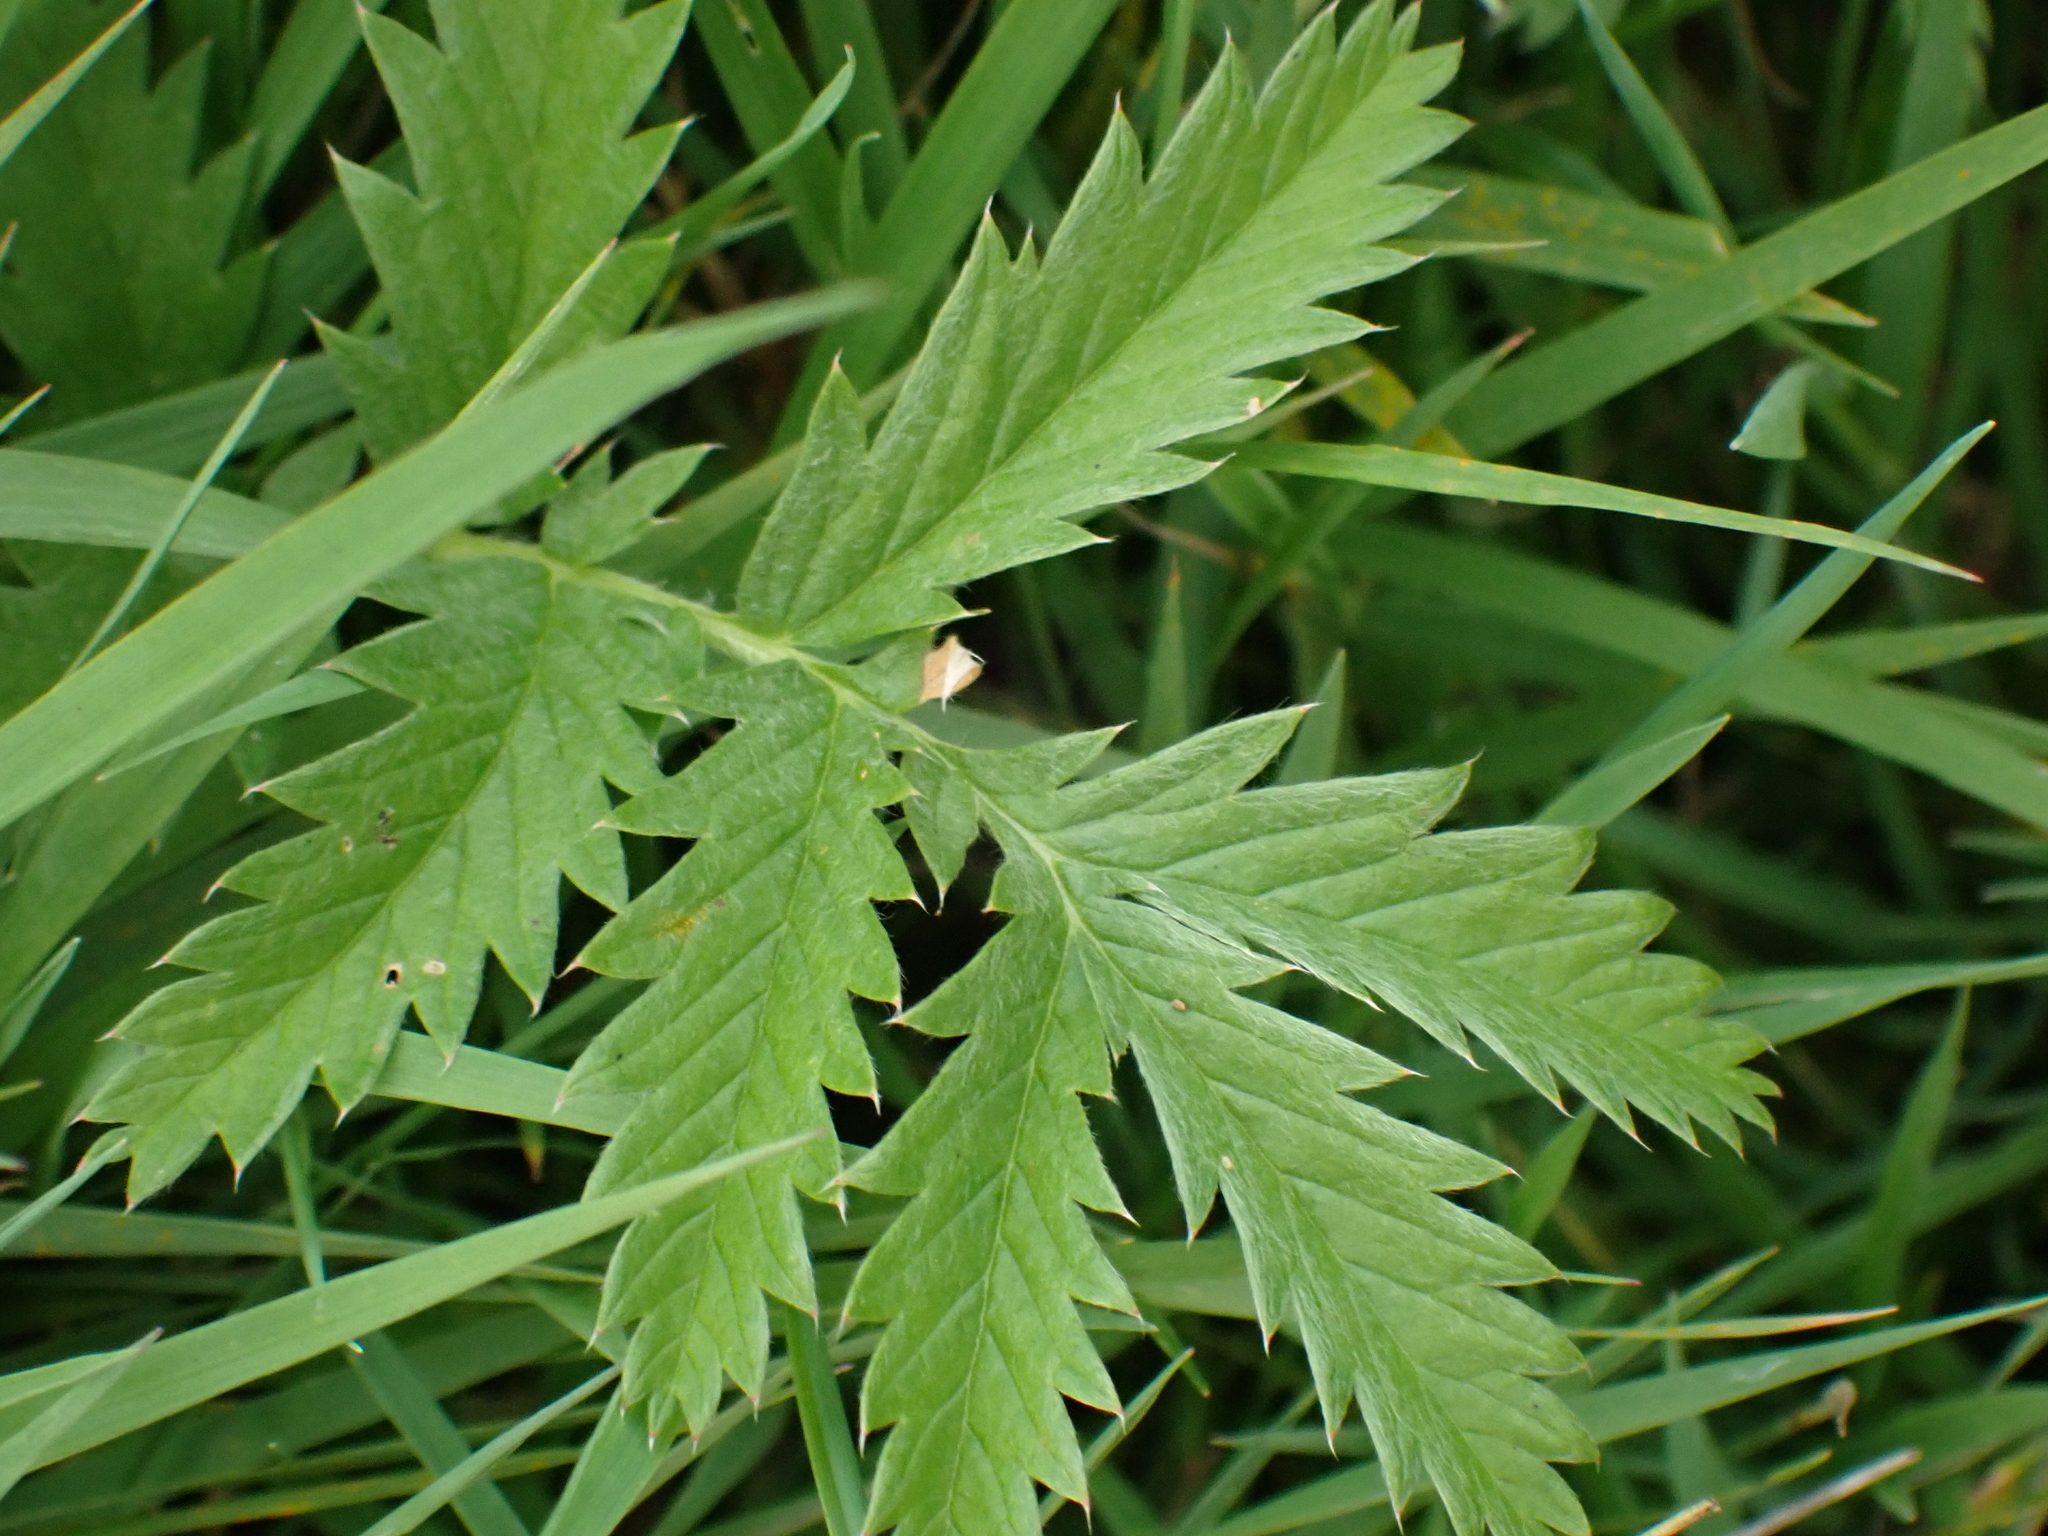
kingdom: Plantae
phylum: Tracheophyta
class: Magnoliopsida
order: Rosales
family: Rosaceae
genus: Argentina
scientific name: Argentina anserina
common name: Common silverweed
